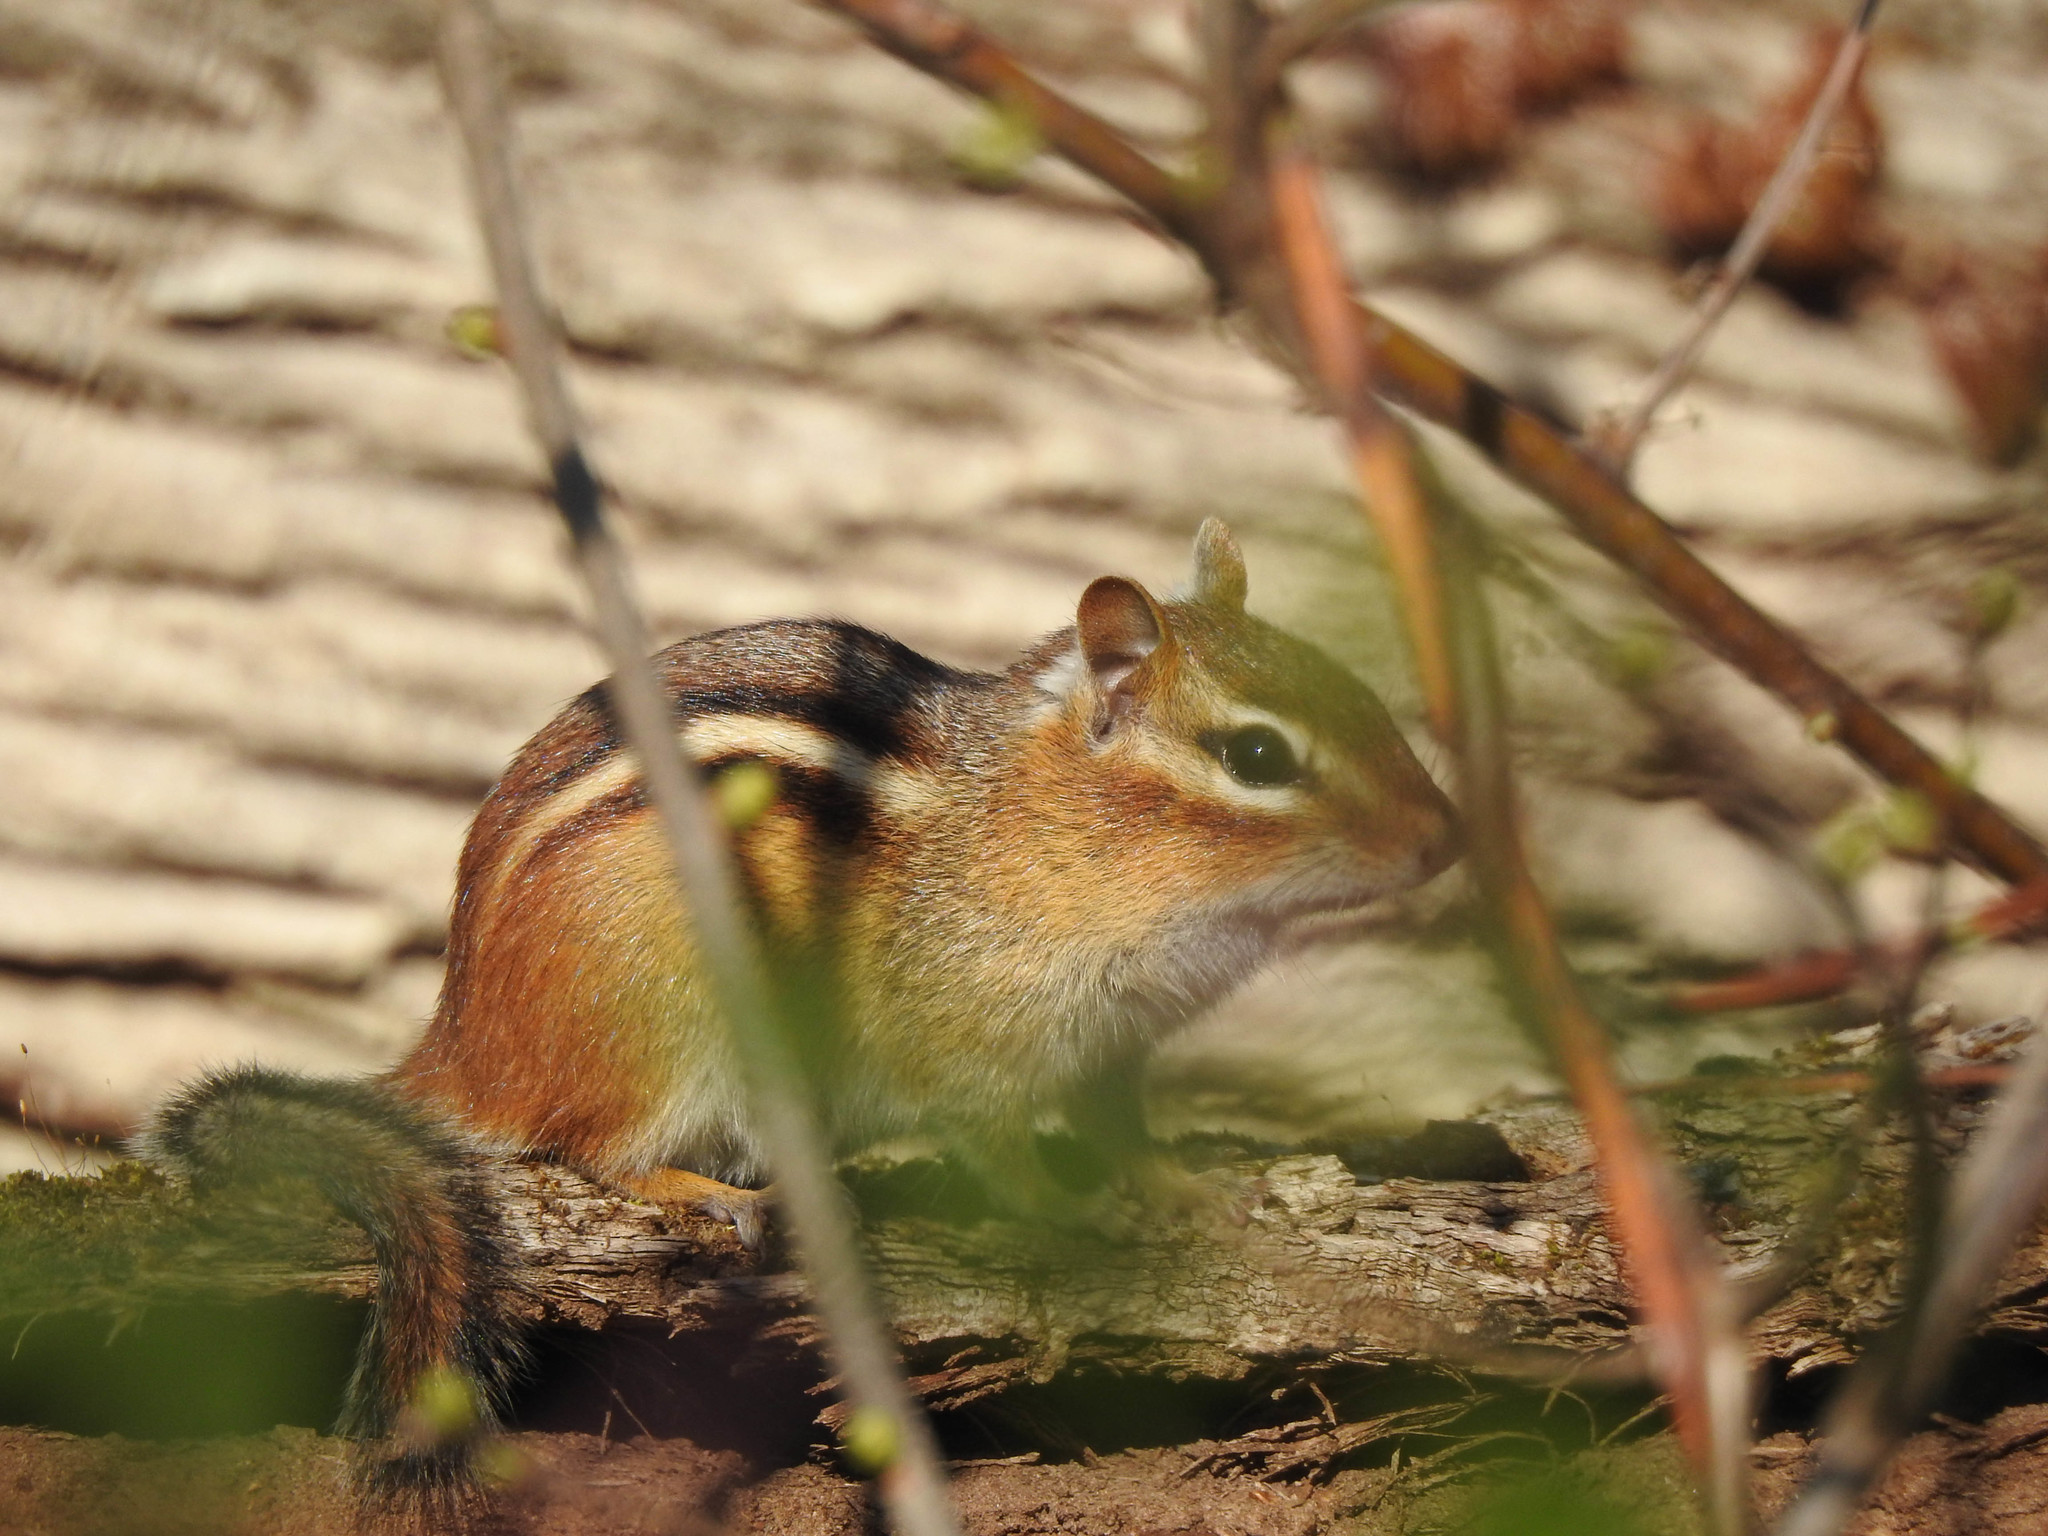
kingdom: Animalia
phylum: Chordata
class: Mammalia
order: Rodentia
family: Sciuridae
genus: Tamias
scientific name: Tamias striatus
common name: Eastern chipmunk
